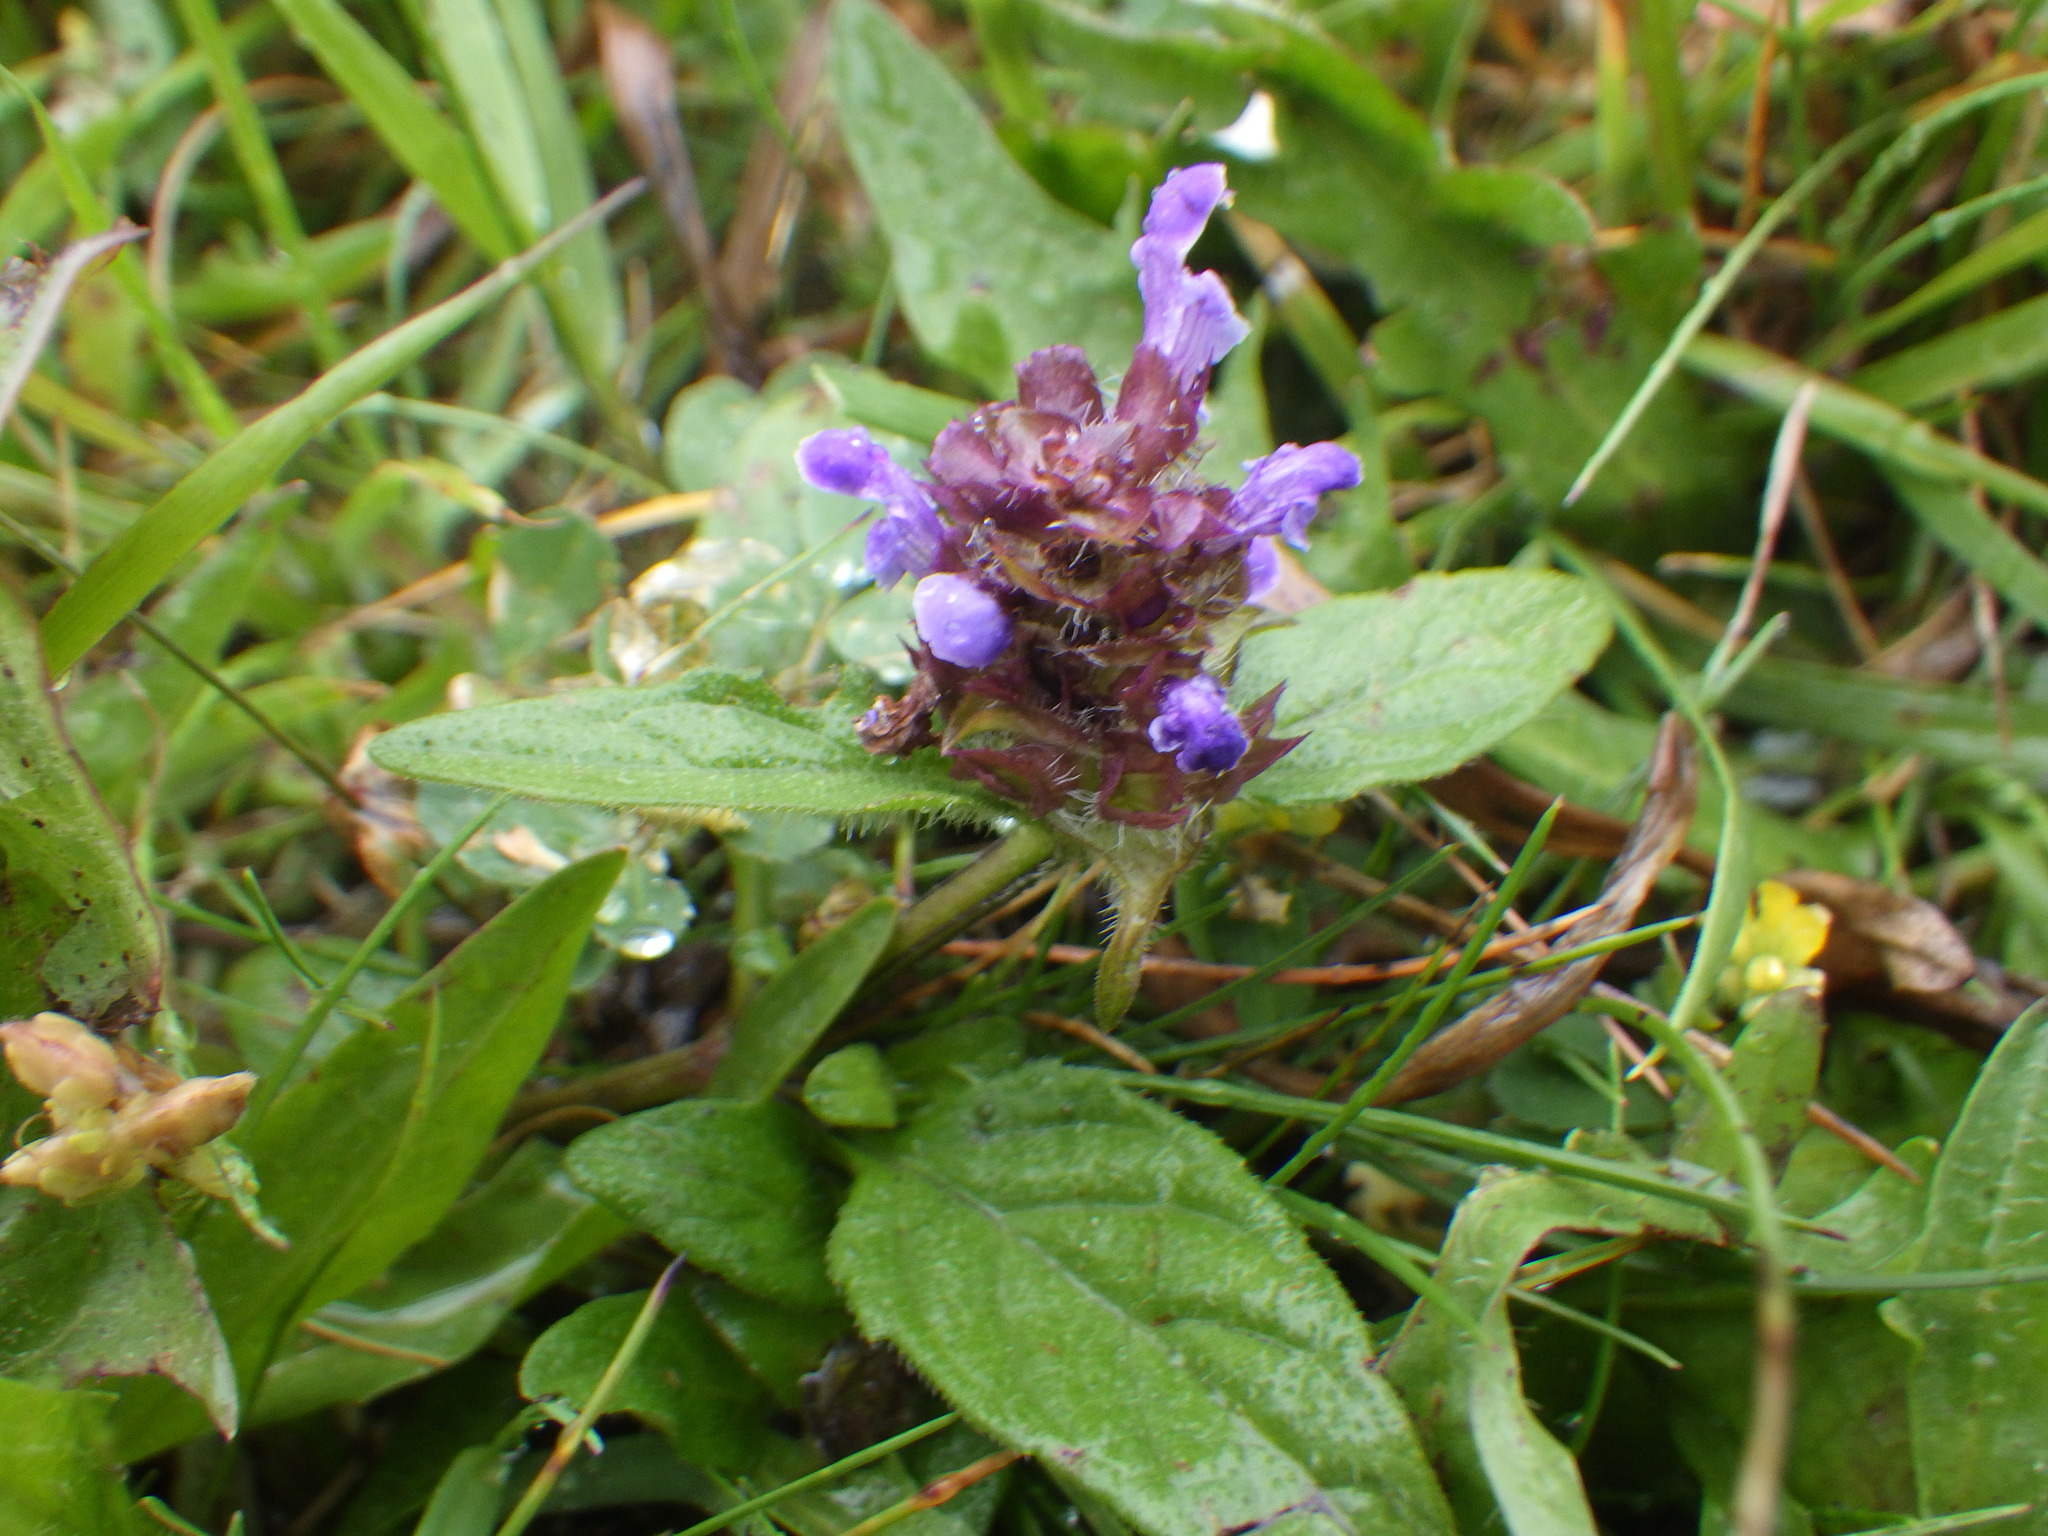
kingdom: Plantae
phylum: Tracheophyta
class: Magnoliopsida
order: Lamiales
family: Lamiaceae
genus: Prunella
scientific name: Prunella vulgaris
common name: Heal-all
